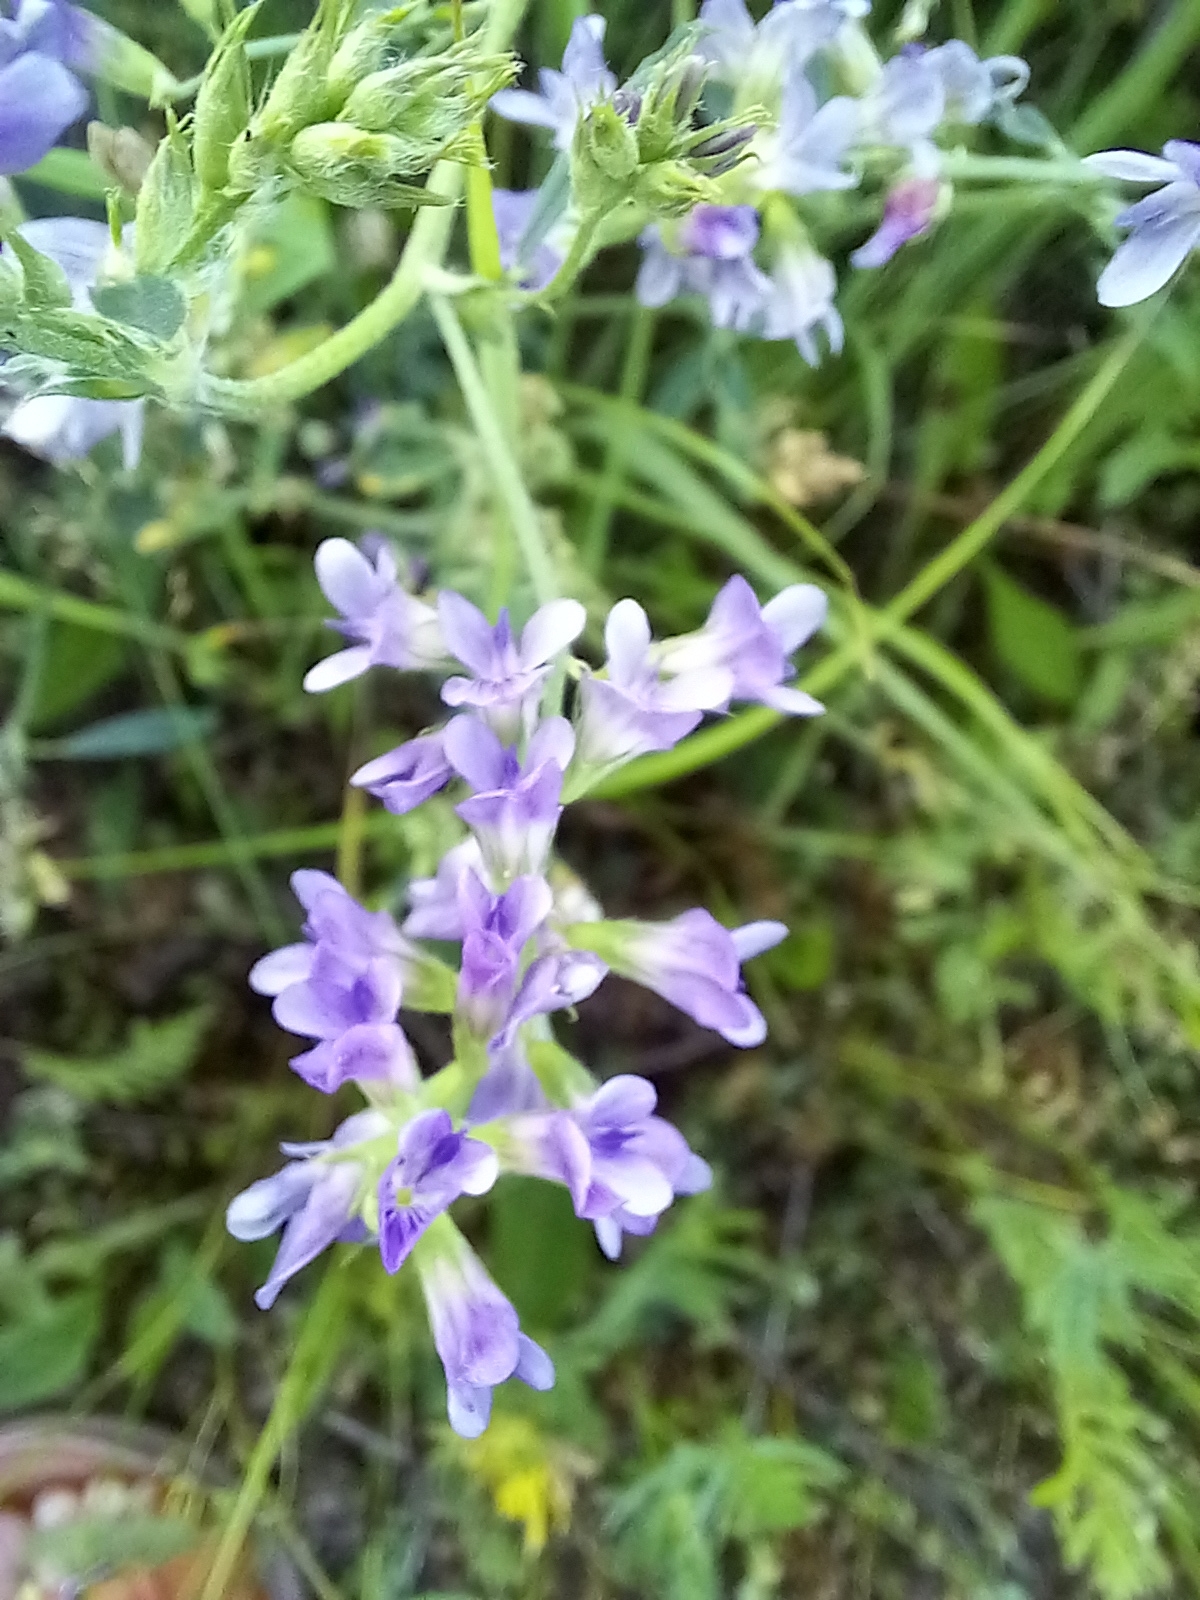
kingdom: Plantae
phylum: Tracheophyta
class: Magnoliopsida
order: Fabales
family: Fabaceae
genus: Medicago
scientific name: Medicago sativa
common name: Alfalfa
